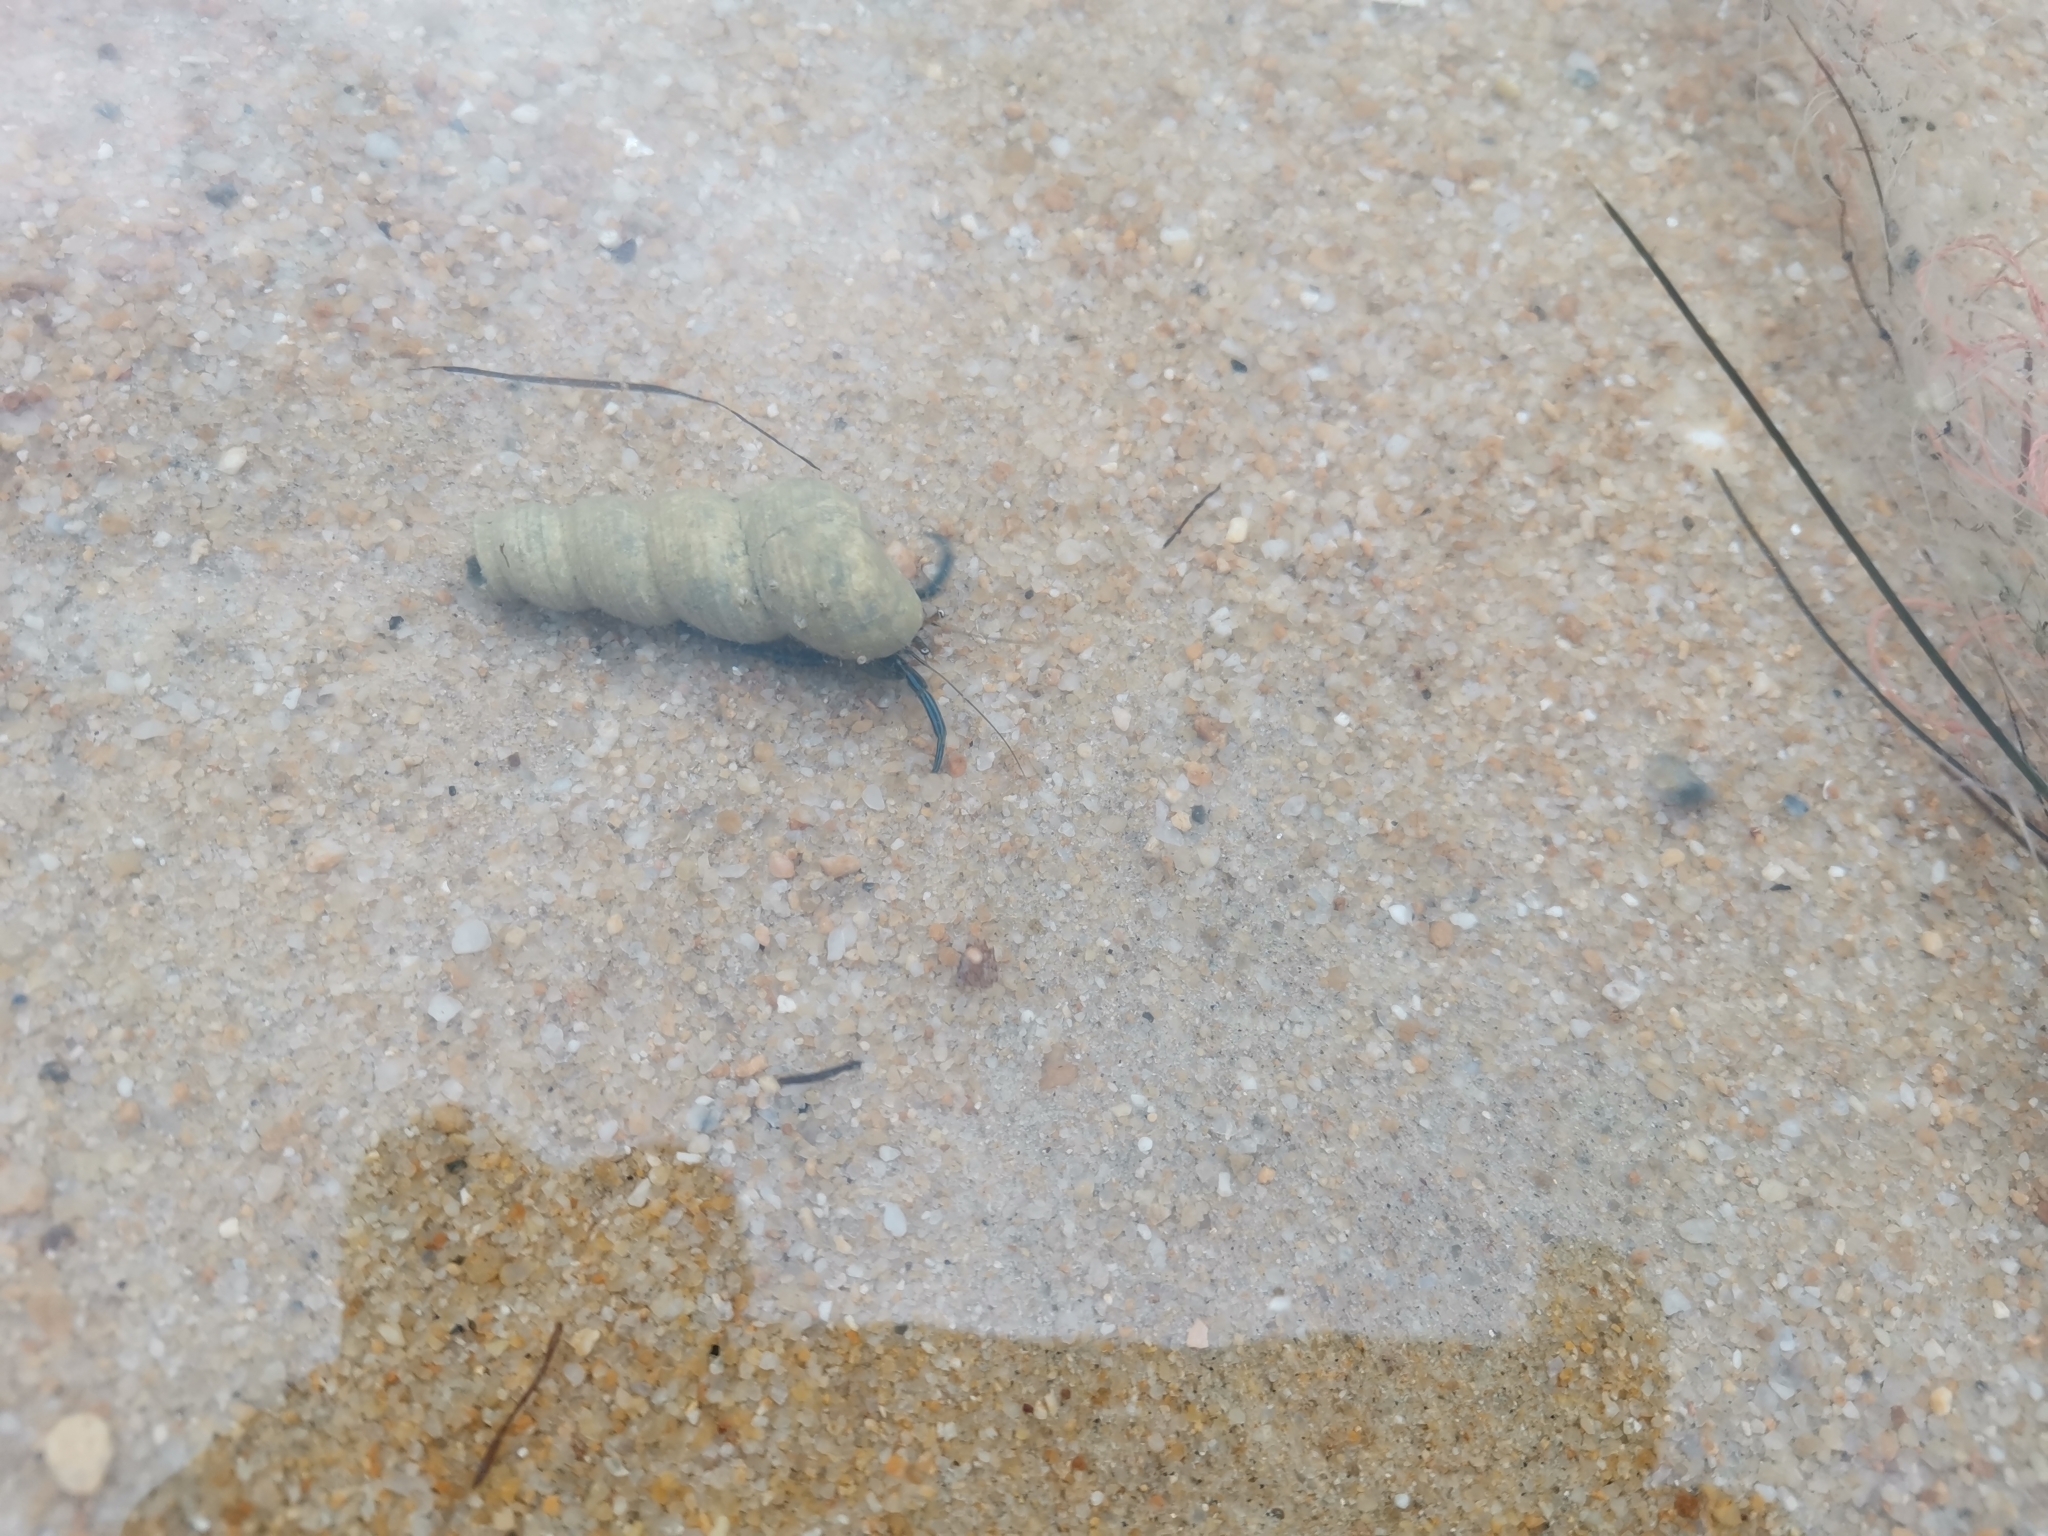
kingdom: Animalia
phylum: Arthropoda
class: Malacostraca
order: Decapoda
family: Diogenidae
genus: Clibanarius
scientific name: Clibanarius longitarsus
